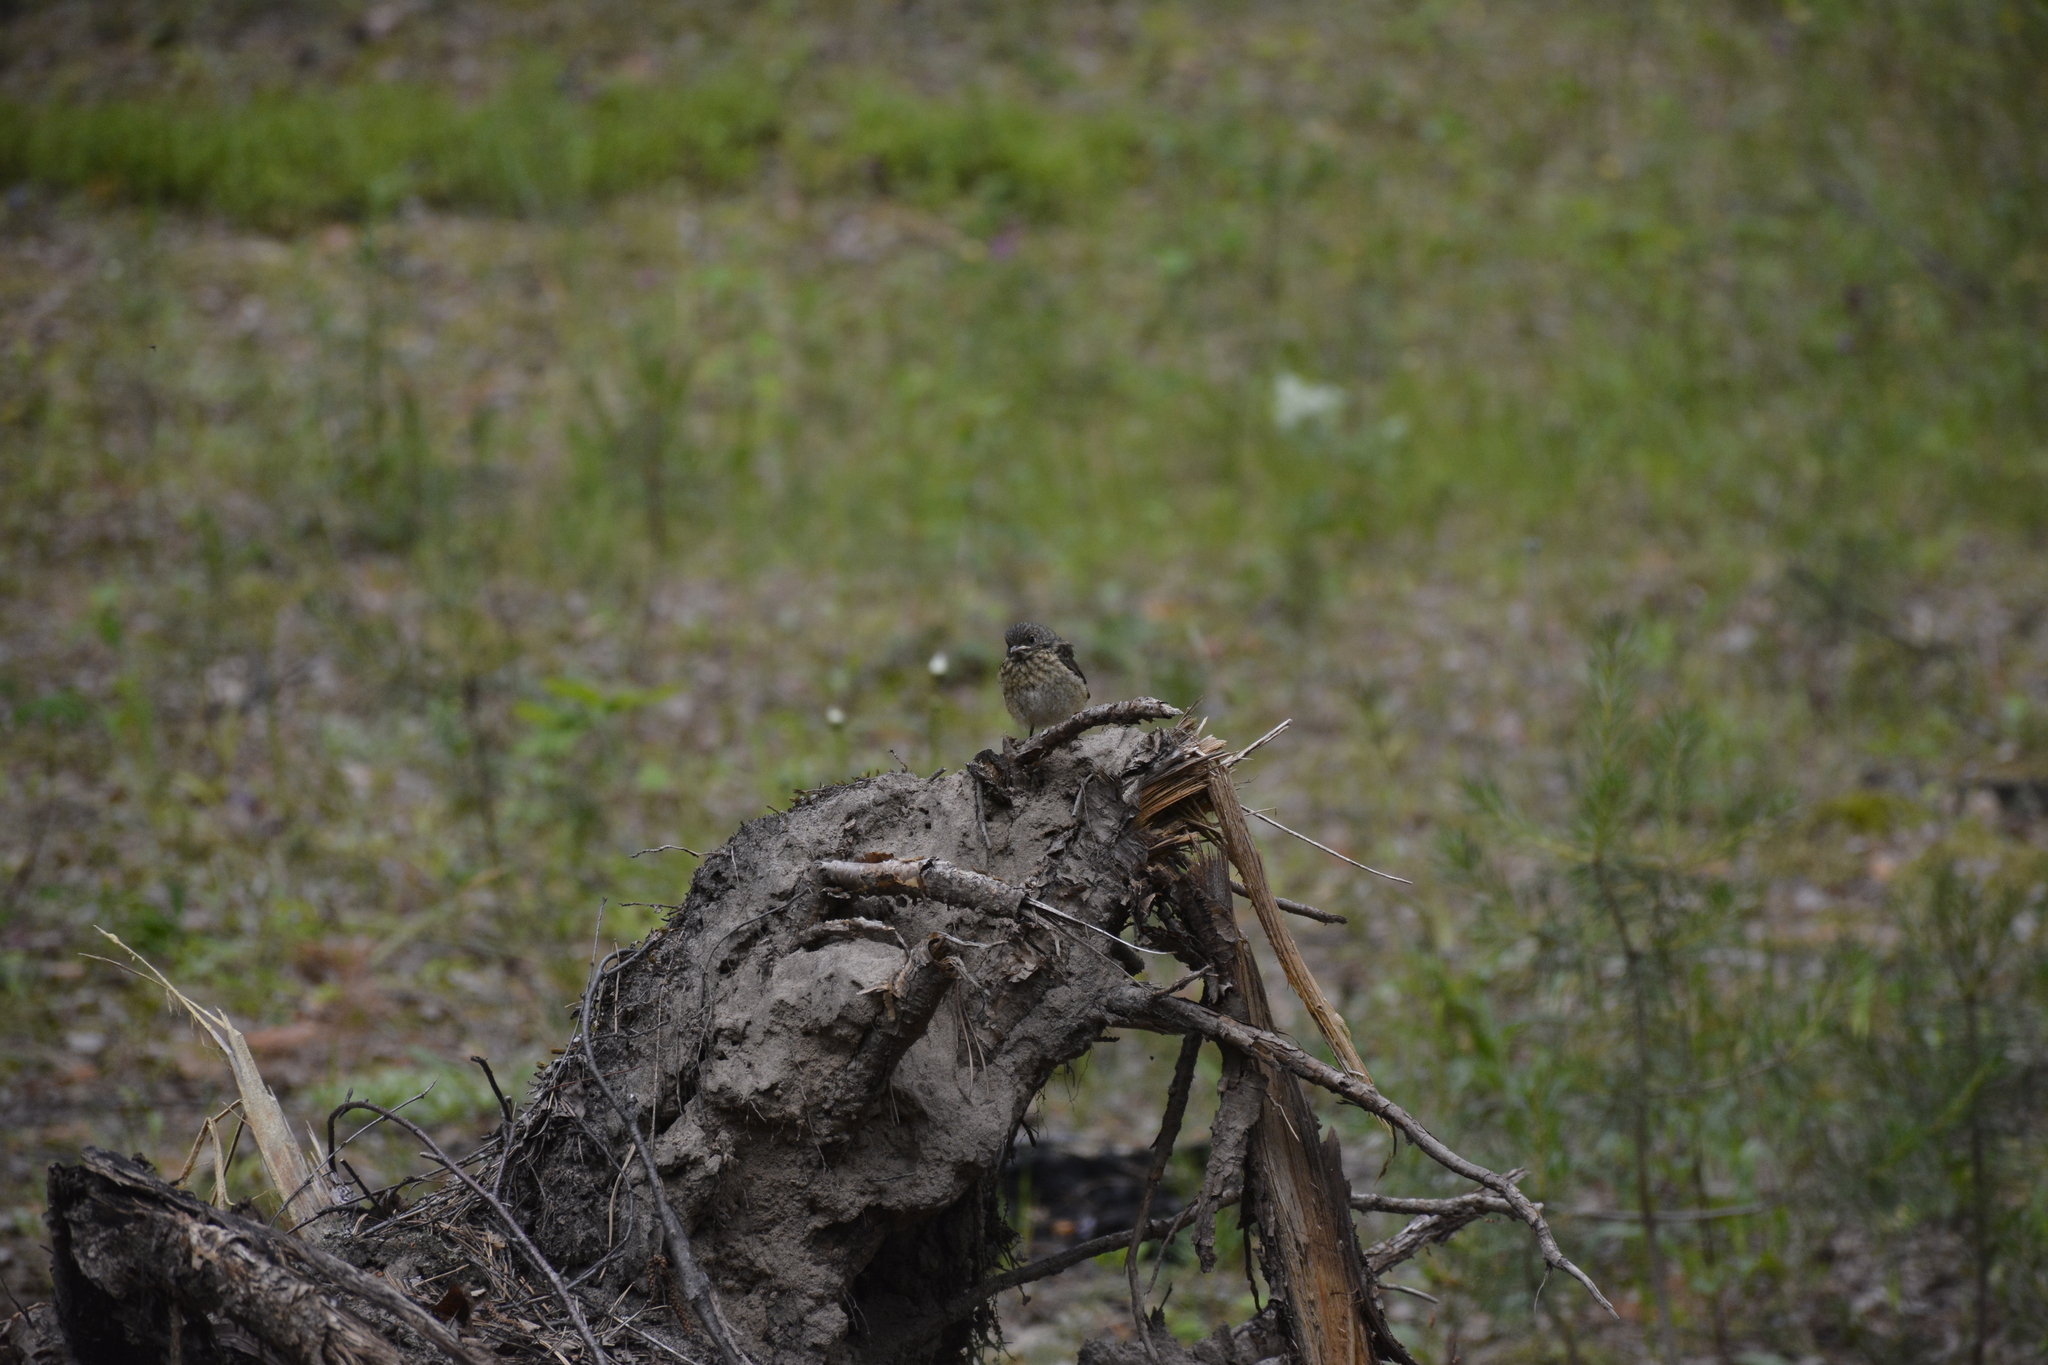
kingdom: Animalia
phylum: Chordata
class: Aves
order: Passeriformes
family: Muscicapidae
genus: Phoenicurus
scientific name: Phoenicurus phoenicurus
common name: Common redstart
